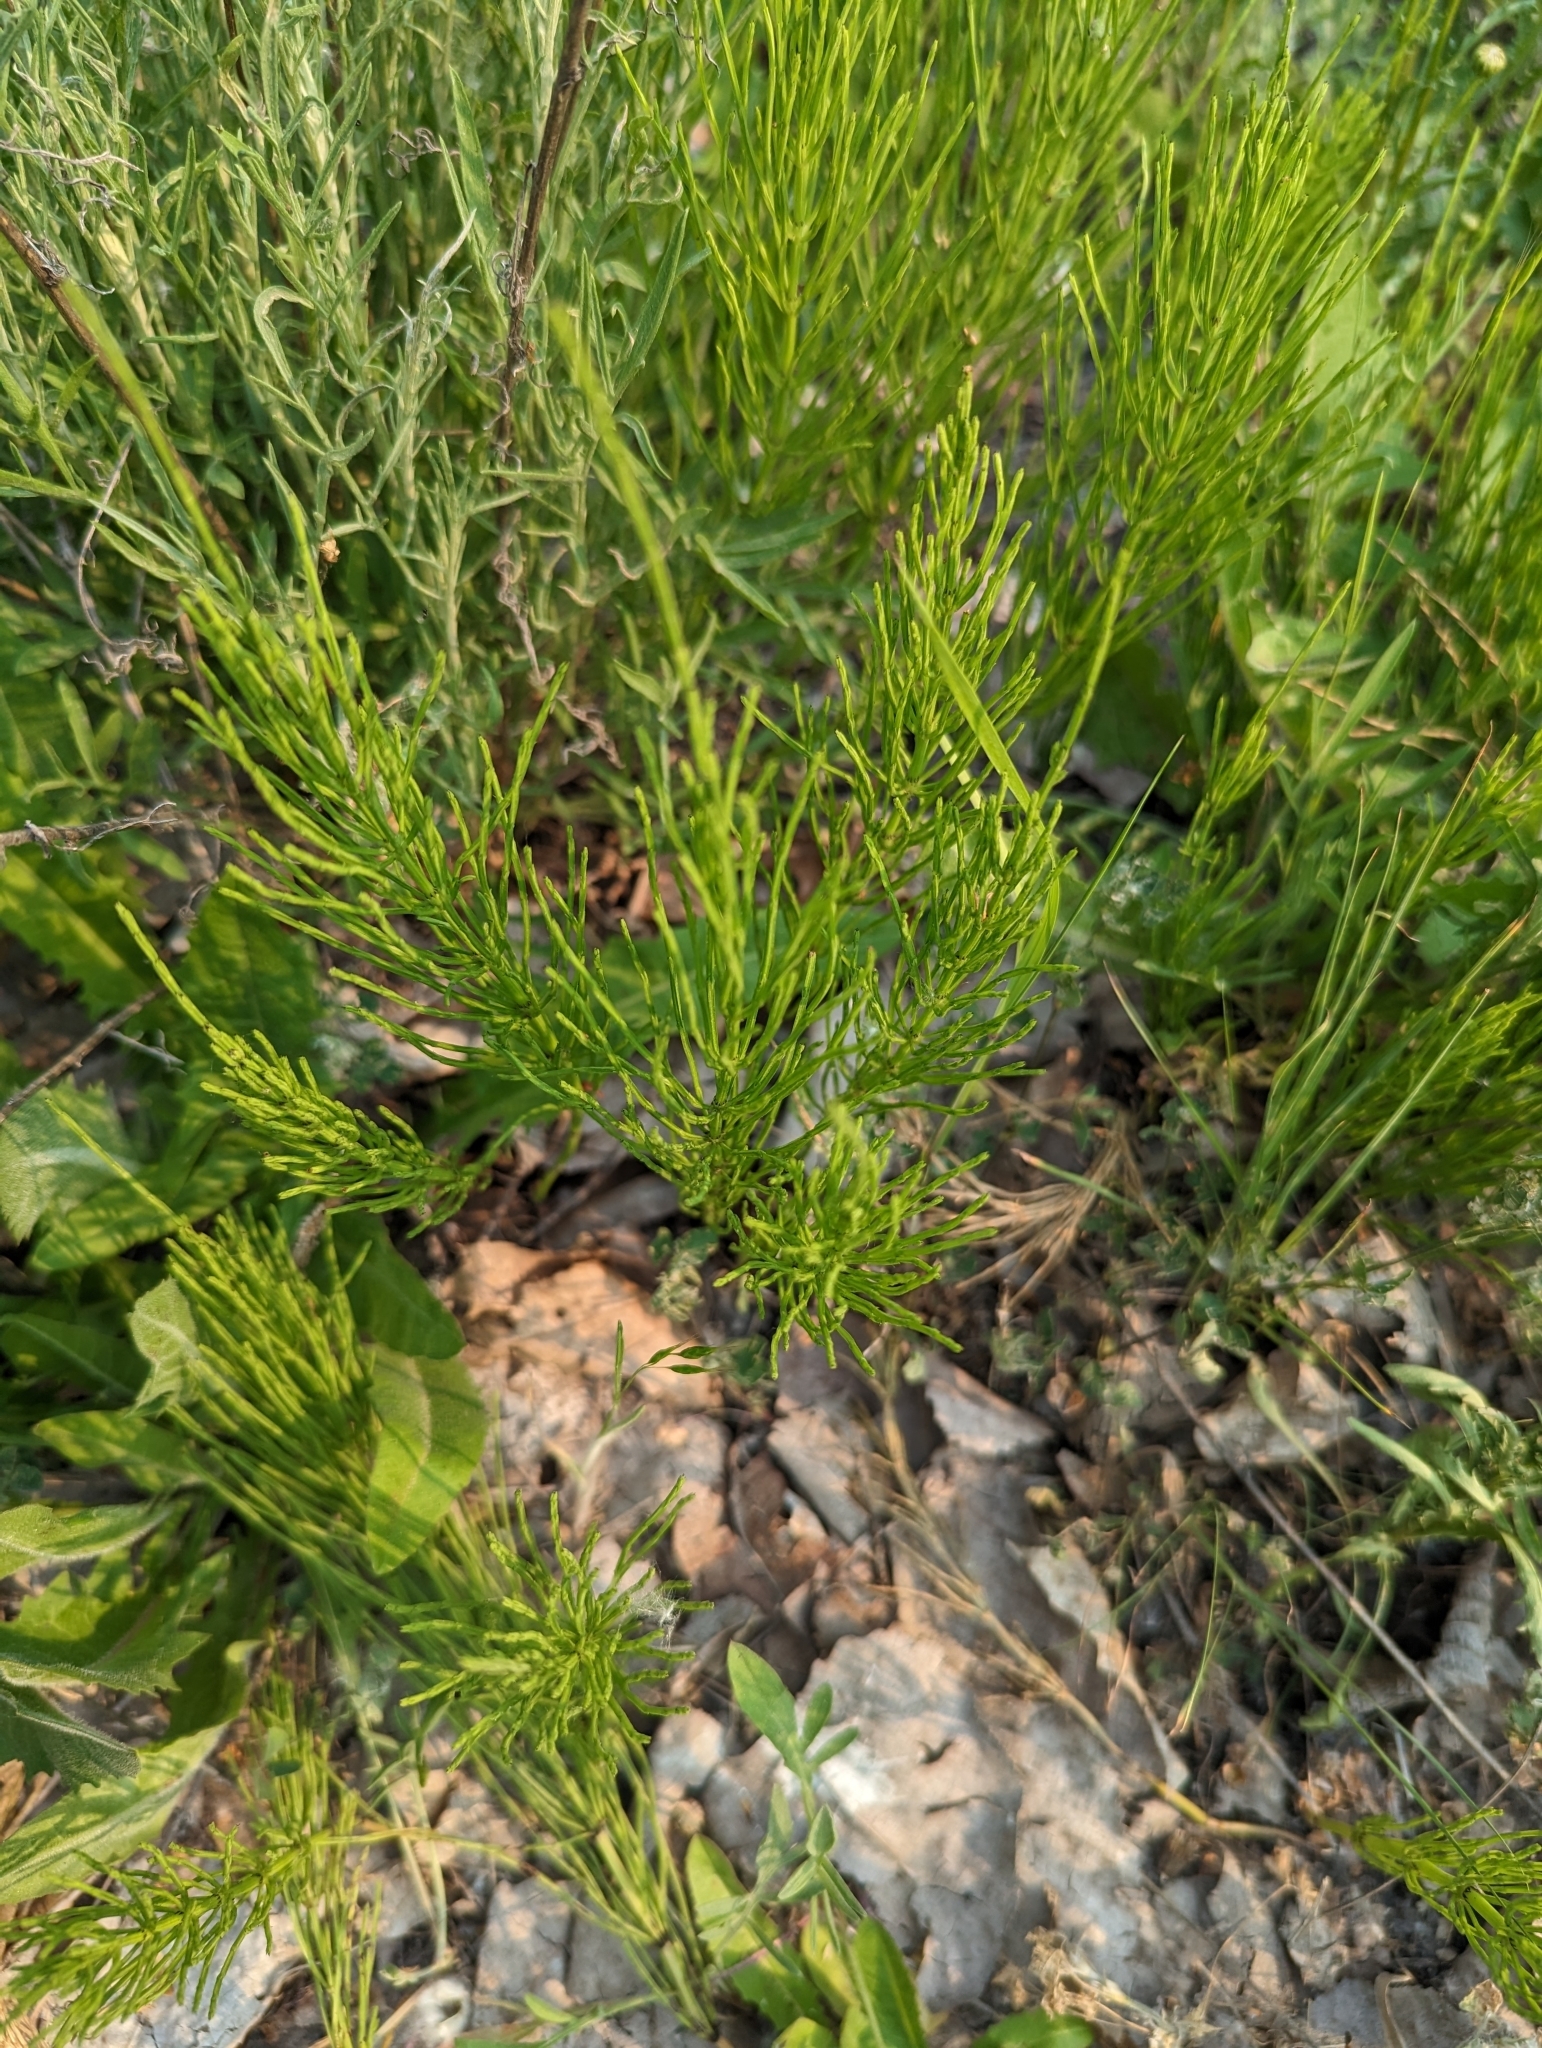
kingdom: Plantae
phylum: Tracheophyta
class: Polypodiopsida
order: Equisetales
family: Equisetaceae
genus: Equisetum
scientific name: Equisetum arvense
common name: Field horsetail
